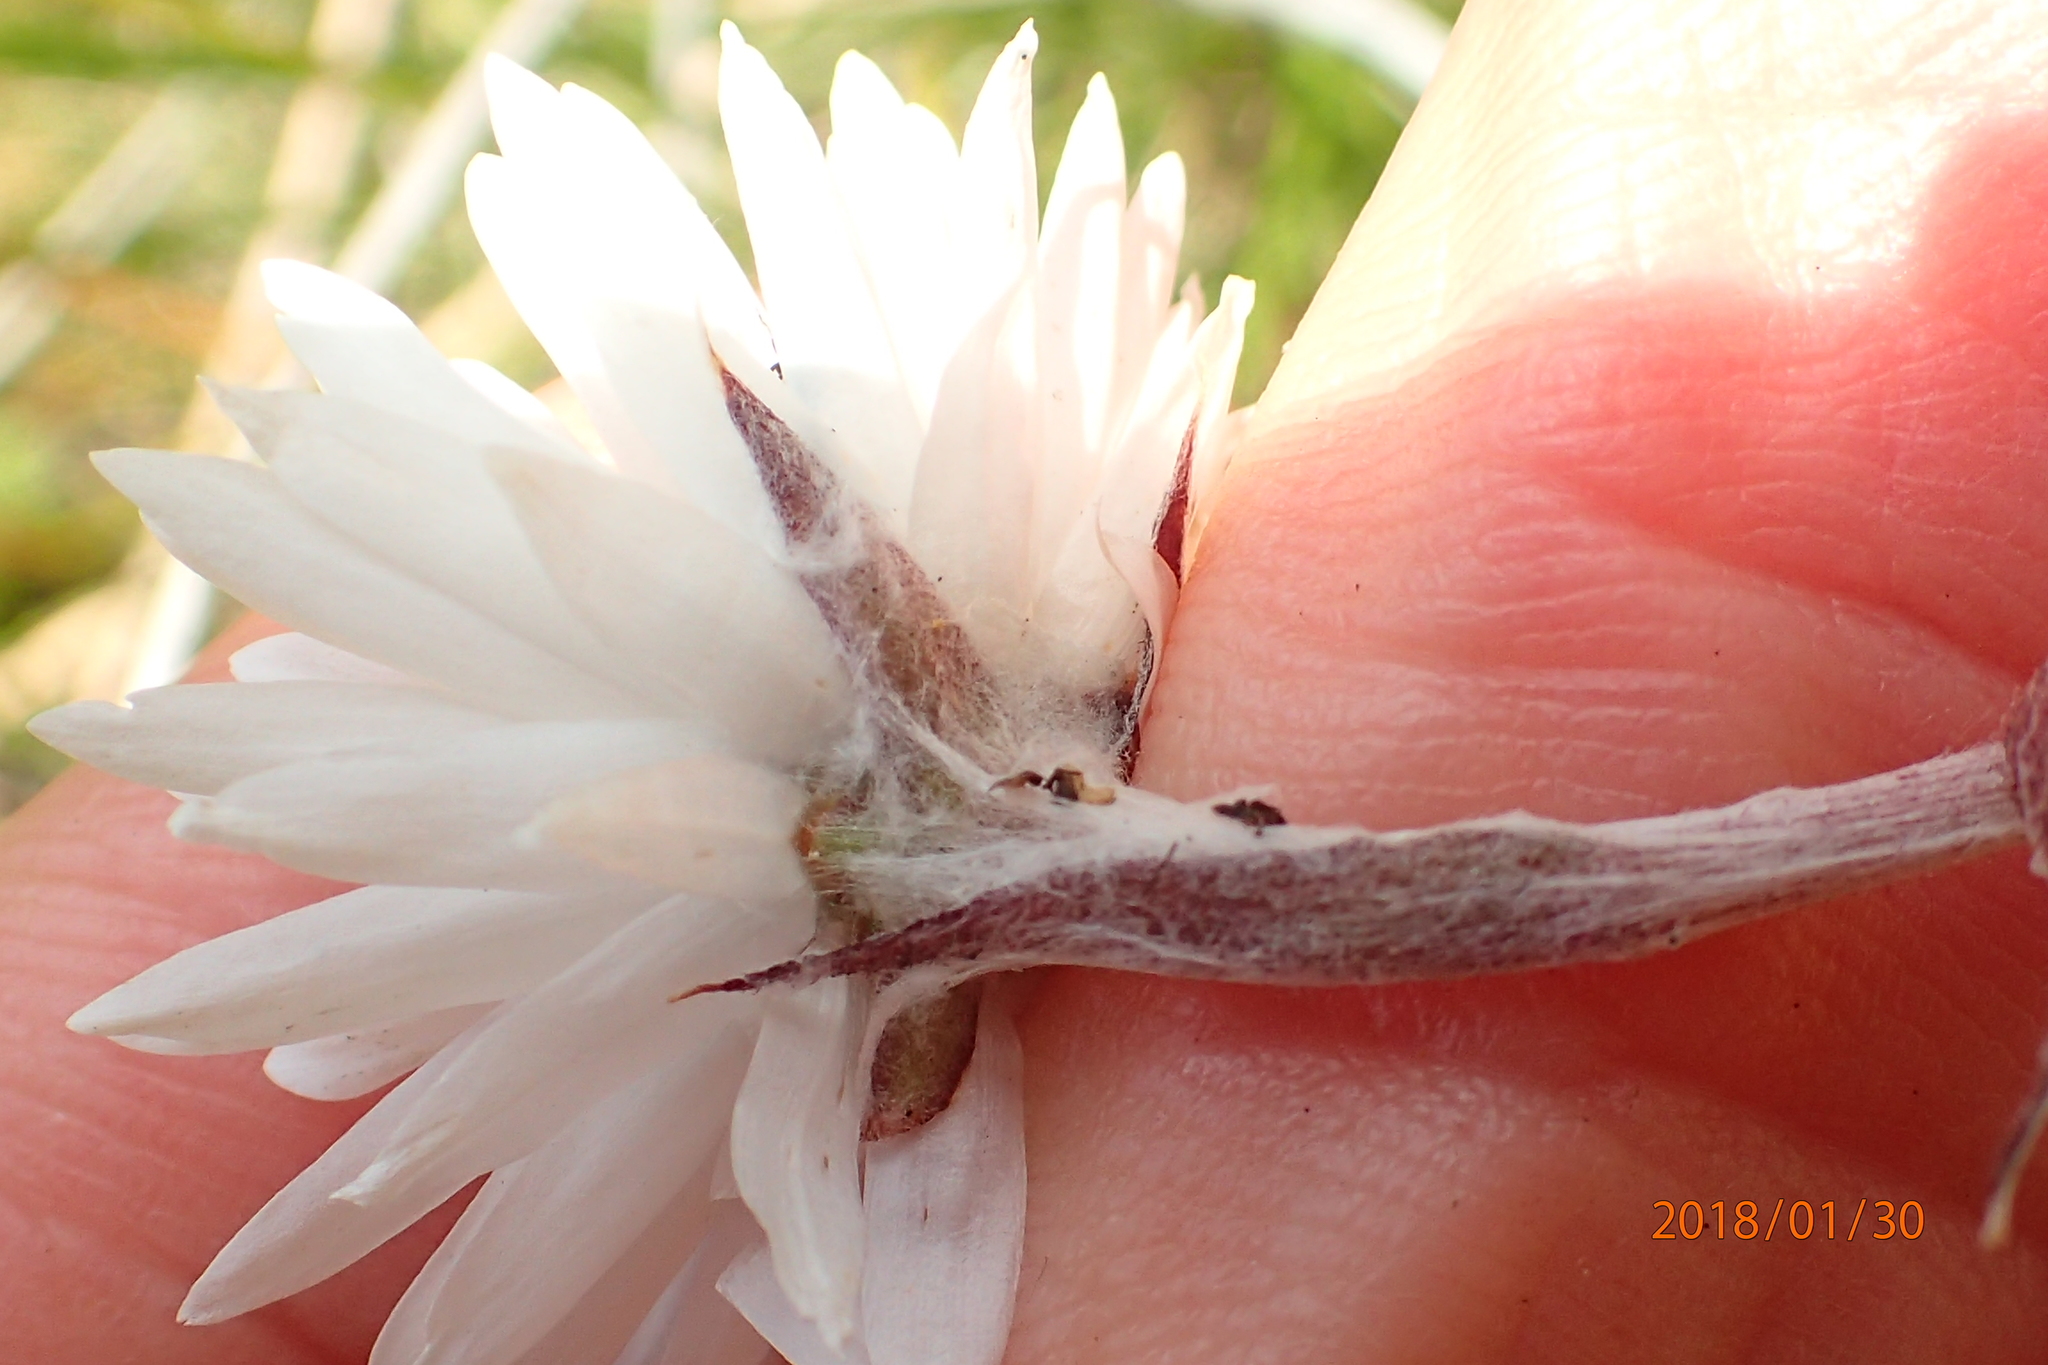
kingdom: Plantae
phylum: Tracheophyta
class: Magnoliopsida
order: Asterales
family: Asteraceae
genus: Helichrysum
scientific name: Helichrysum bellum
